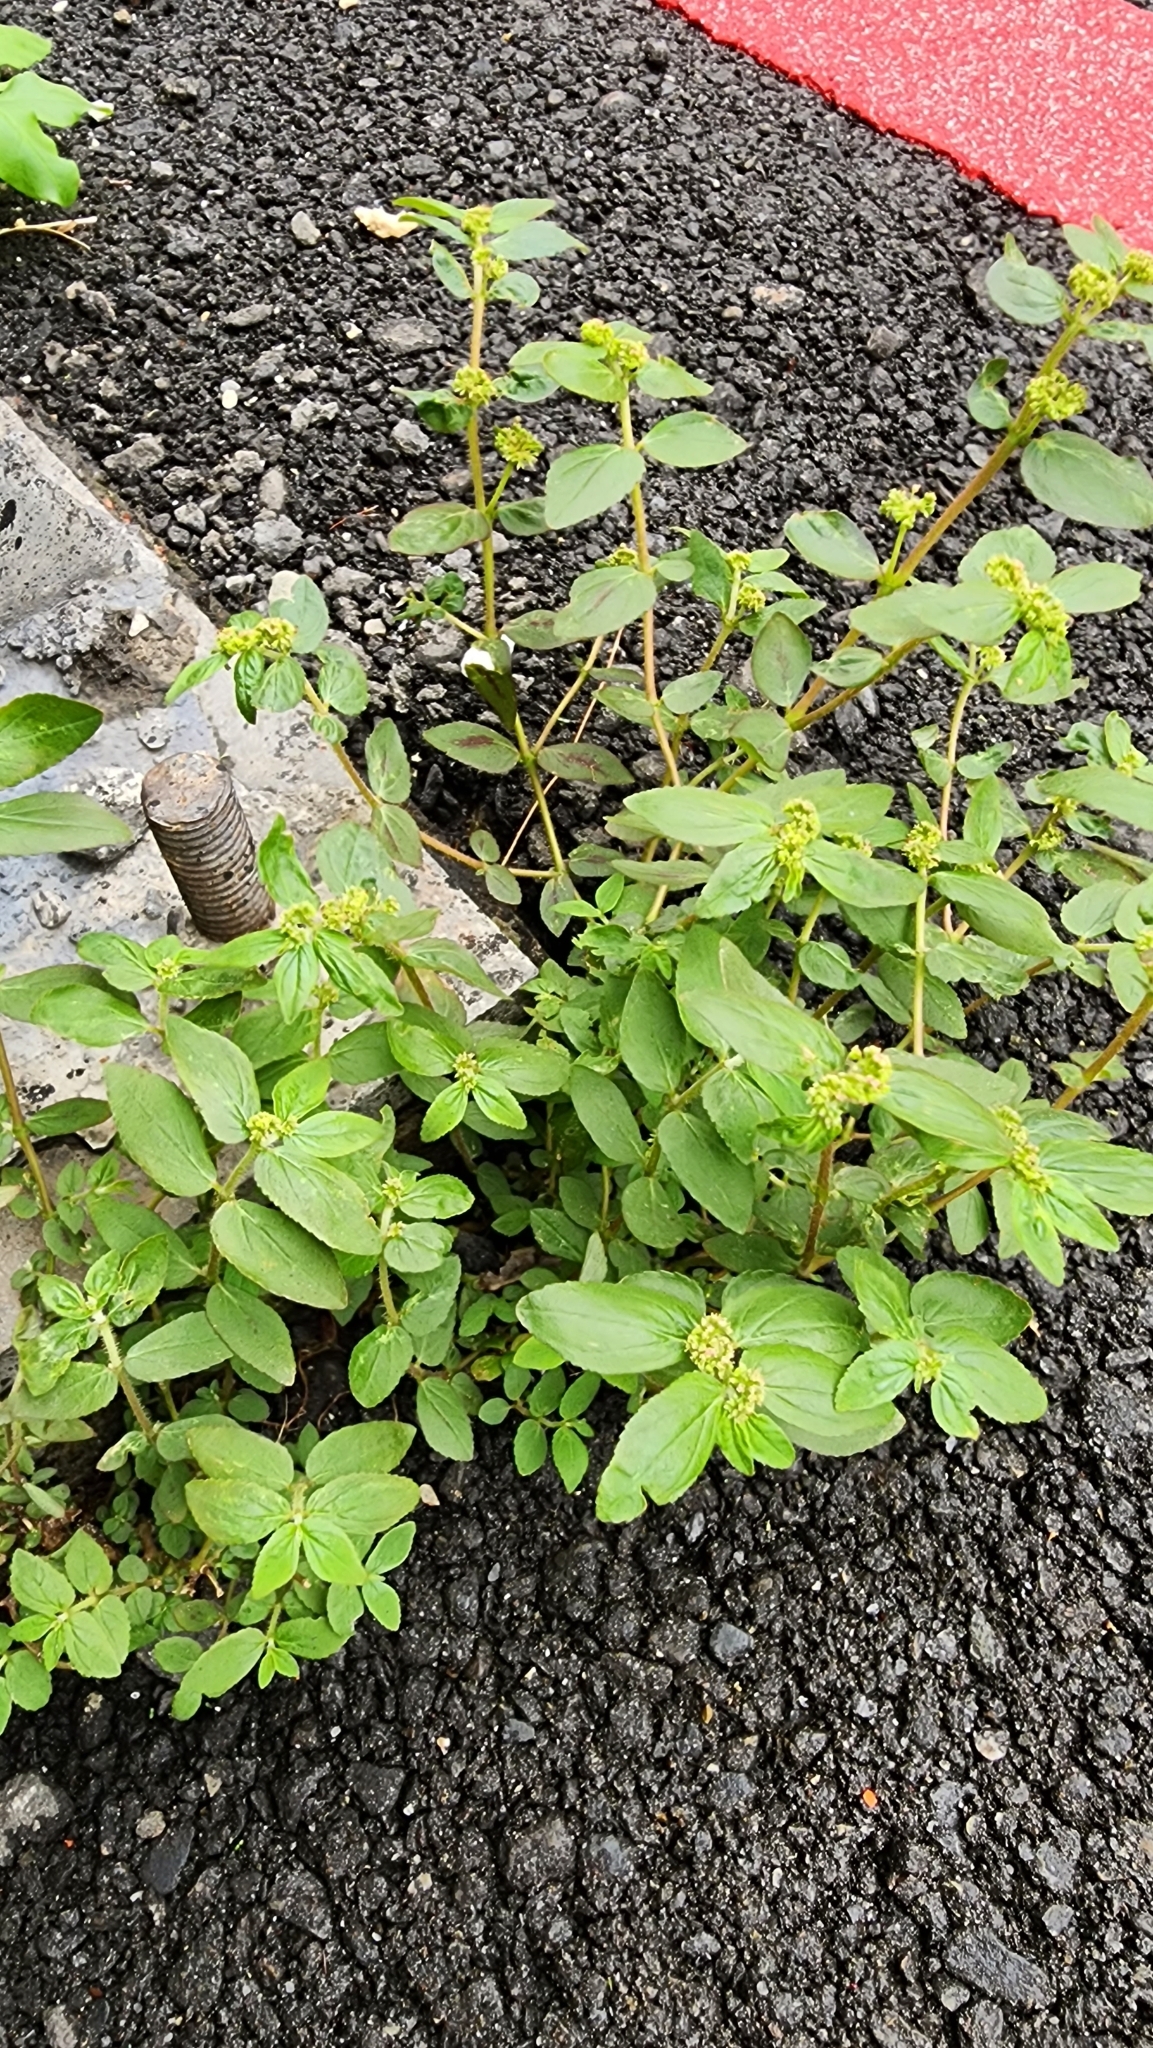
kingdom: Plantae
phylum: Tracheophyta
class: Magnoliopsida
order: Malpighiales
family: Euphorbiaceae
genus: Euphorbia
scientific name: Euphorbia hirta
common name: Pillpod sandmat
